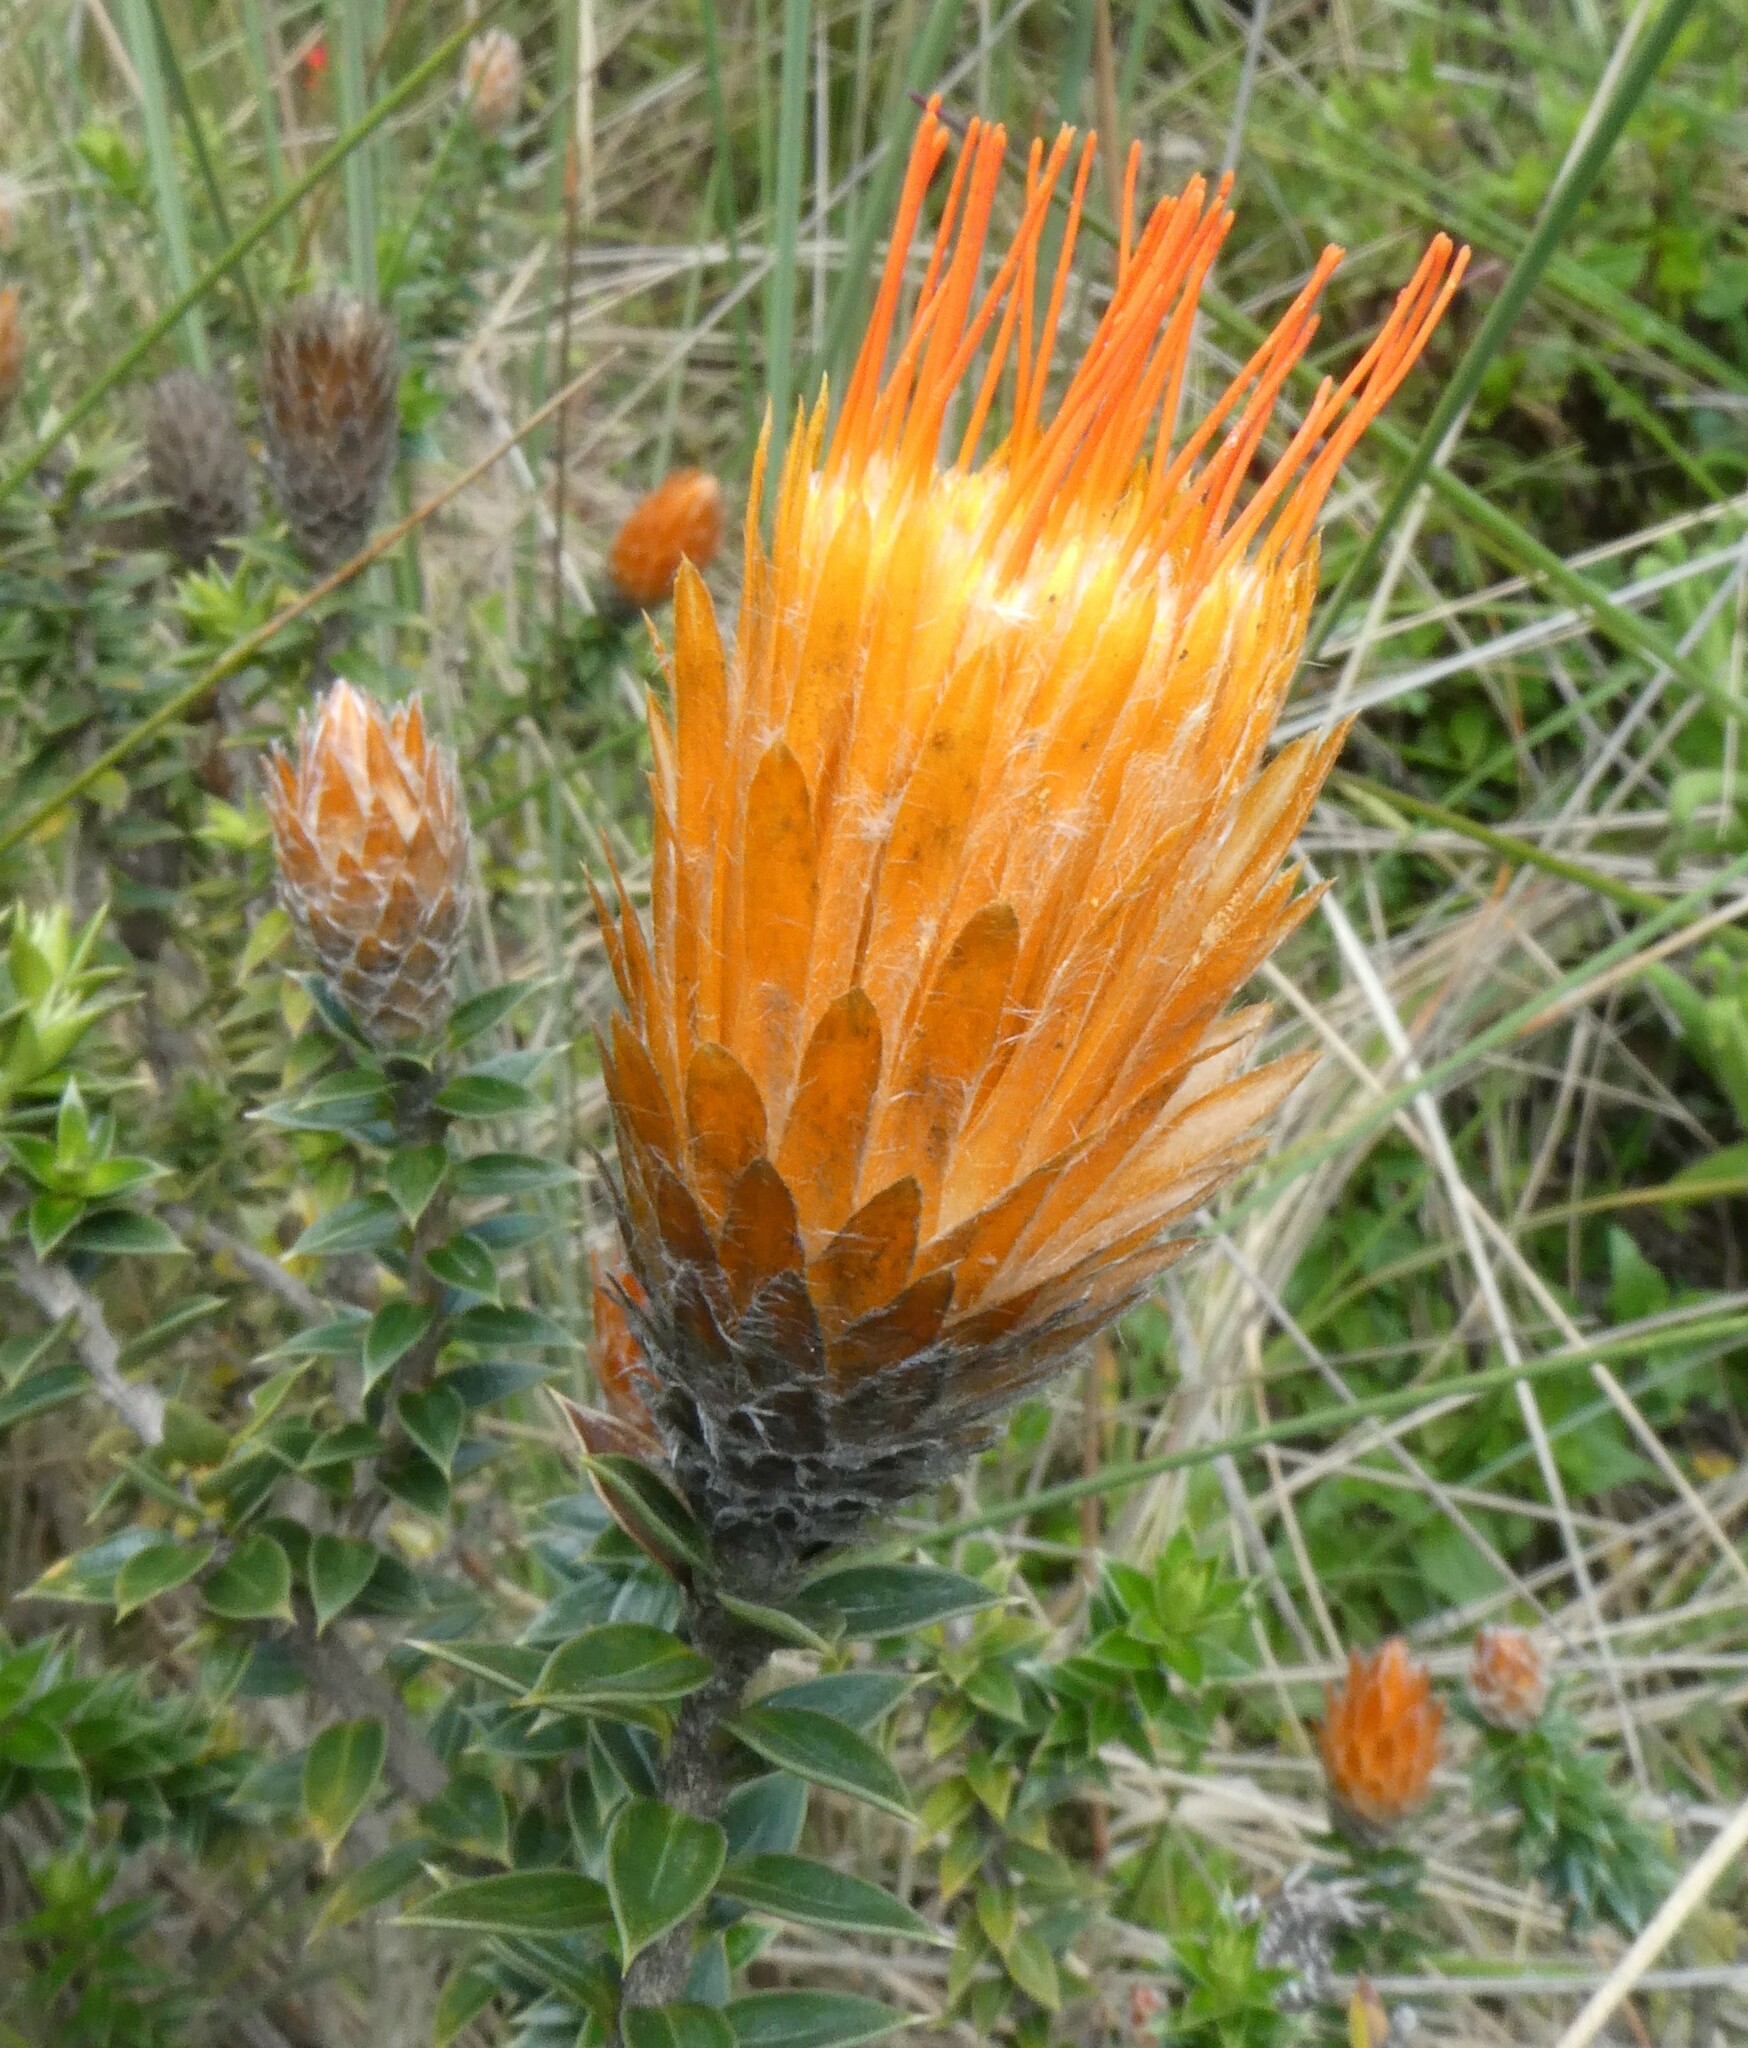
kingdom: Plantae
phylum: Tracheophyta
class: Magnoliopsida
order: Asterales
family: Asteraceae
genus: Chuquiraga
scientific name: Chuquiraga jussieui
